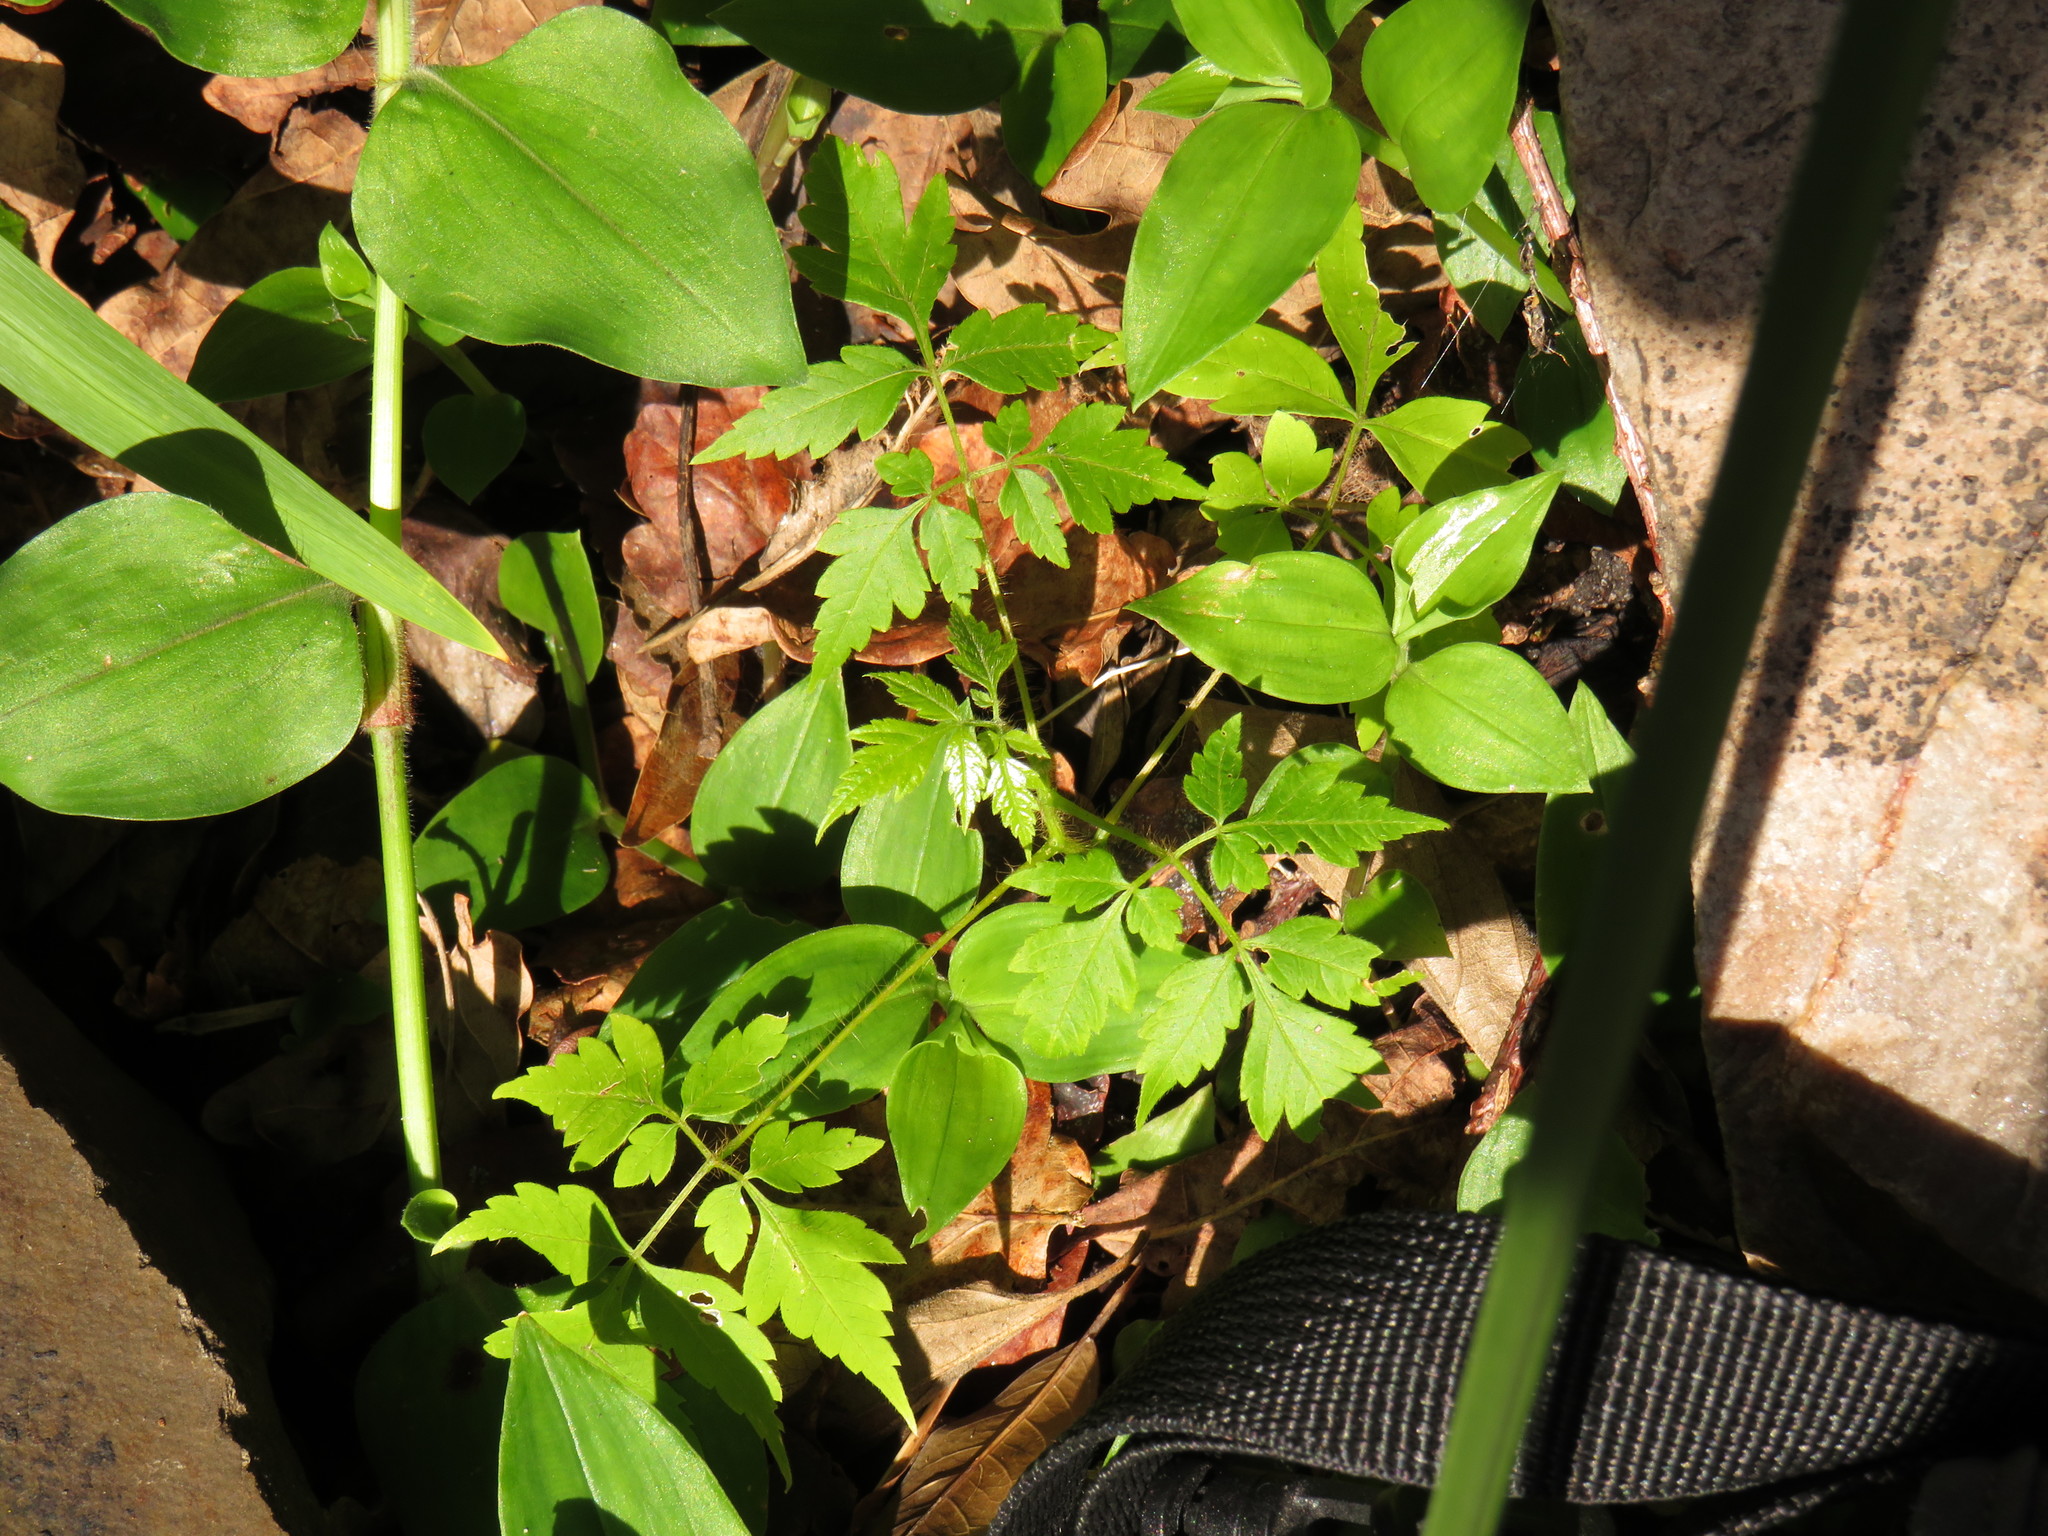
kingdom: Plantae
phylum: Tracheophyta
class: Magnoliopsida
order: Sapindales
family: Sapindaceae
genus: Cardiospermum
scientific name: Cardiospermum grandiflorum
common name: Balloon vine
